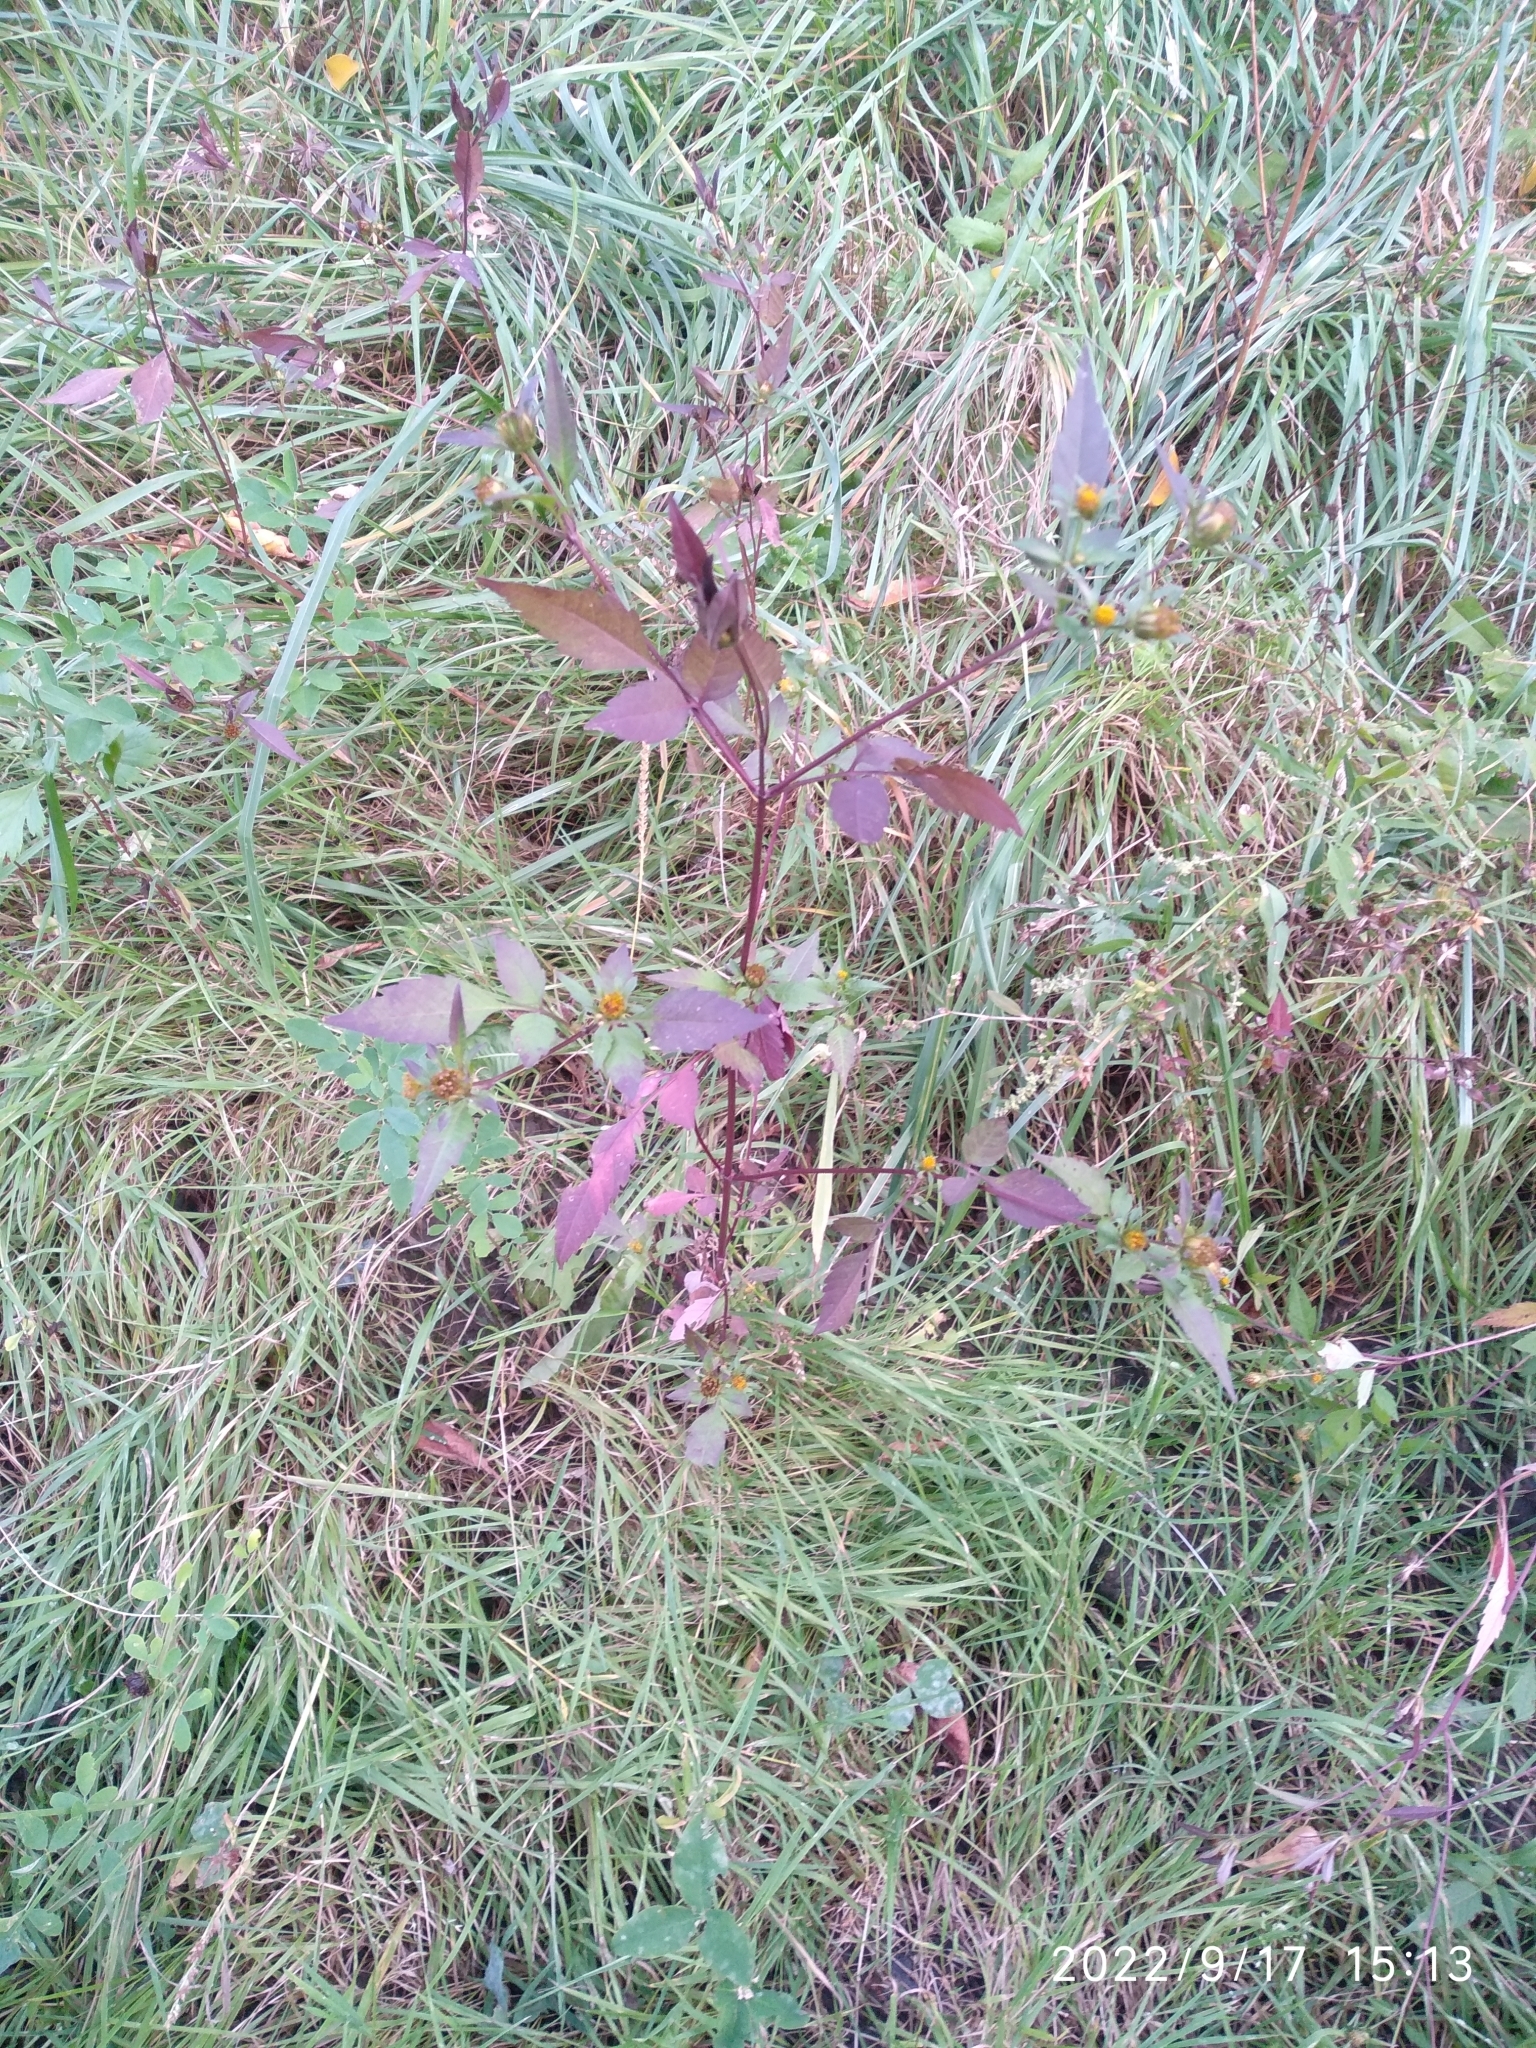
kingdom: Plantae
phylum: Tracheophyta
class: Magnoliopsida
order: Asterales
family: Asteraceae
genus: Bidens
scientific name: Bidens frondosa
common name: Beggarticks
